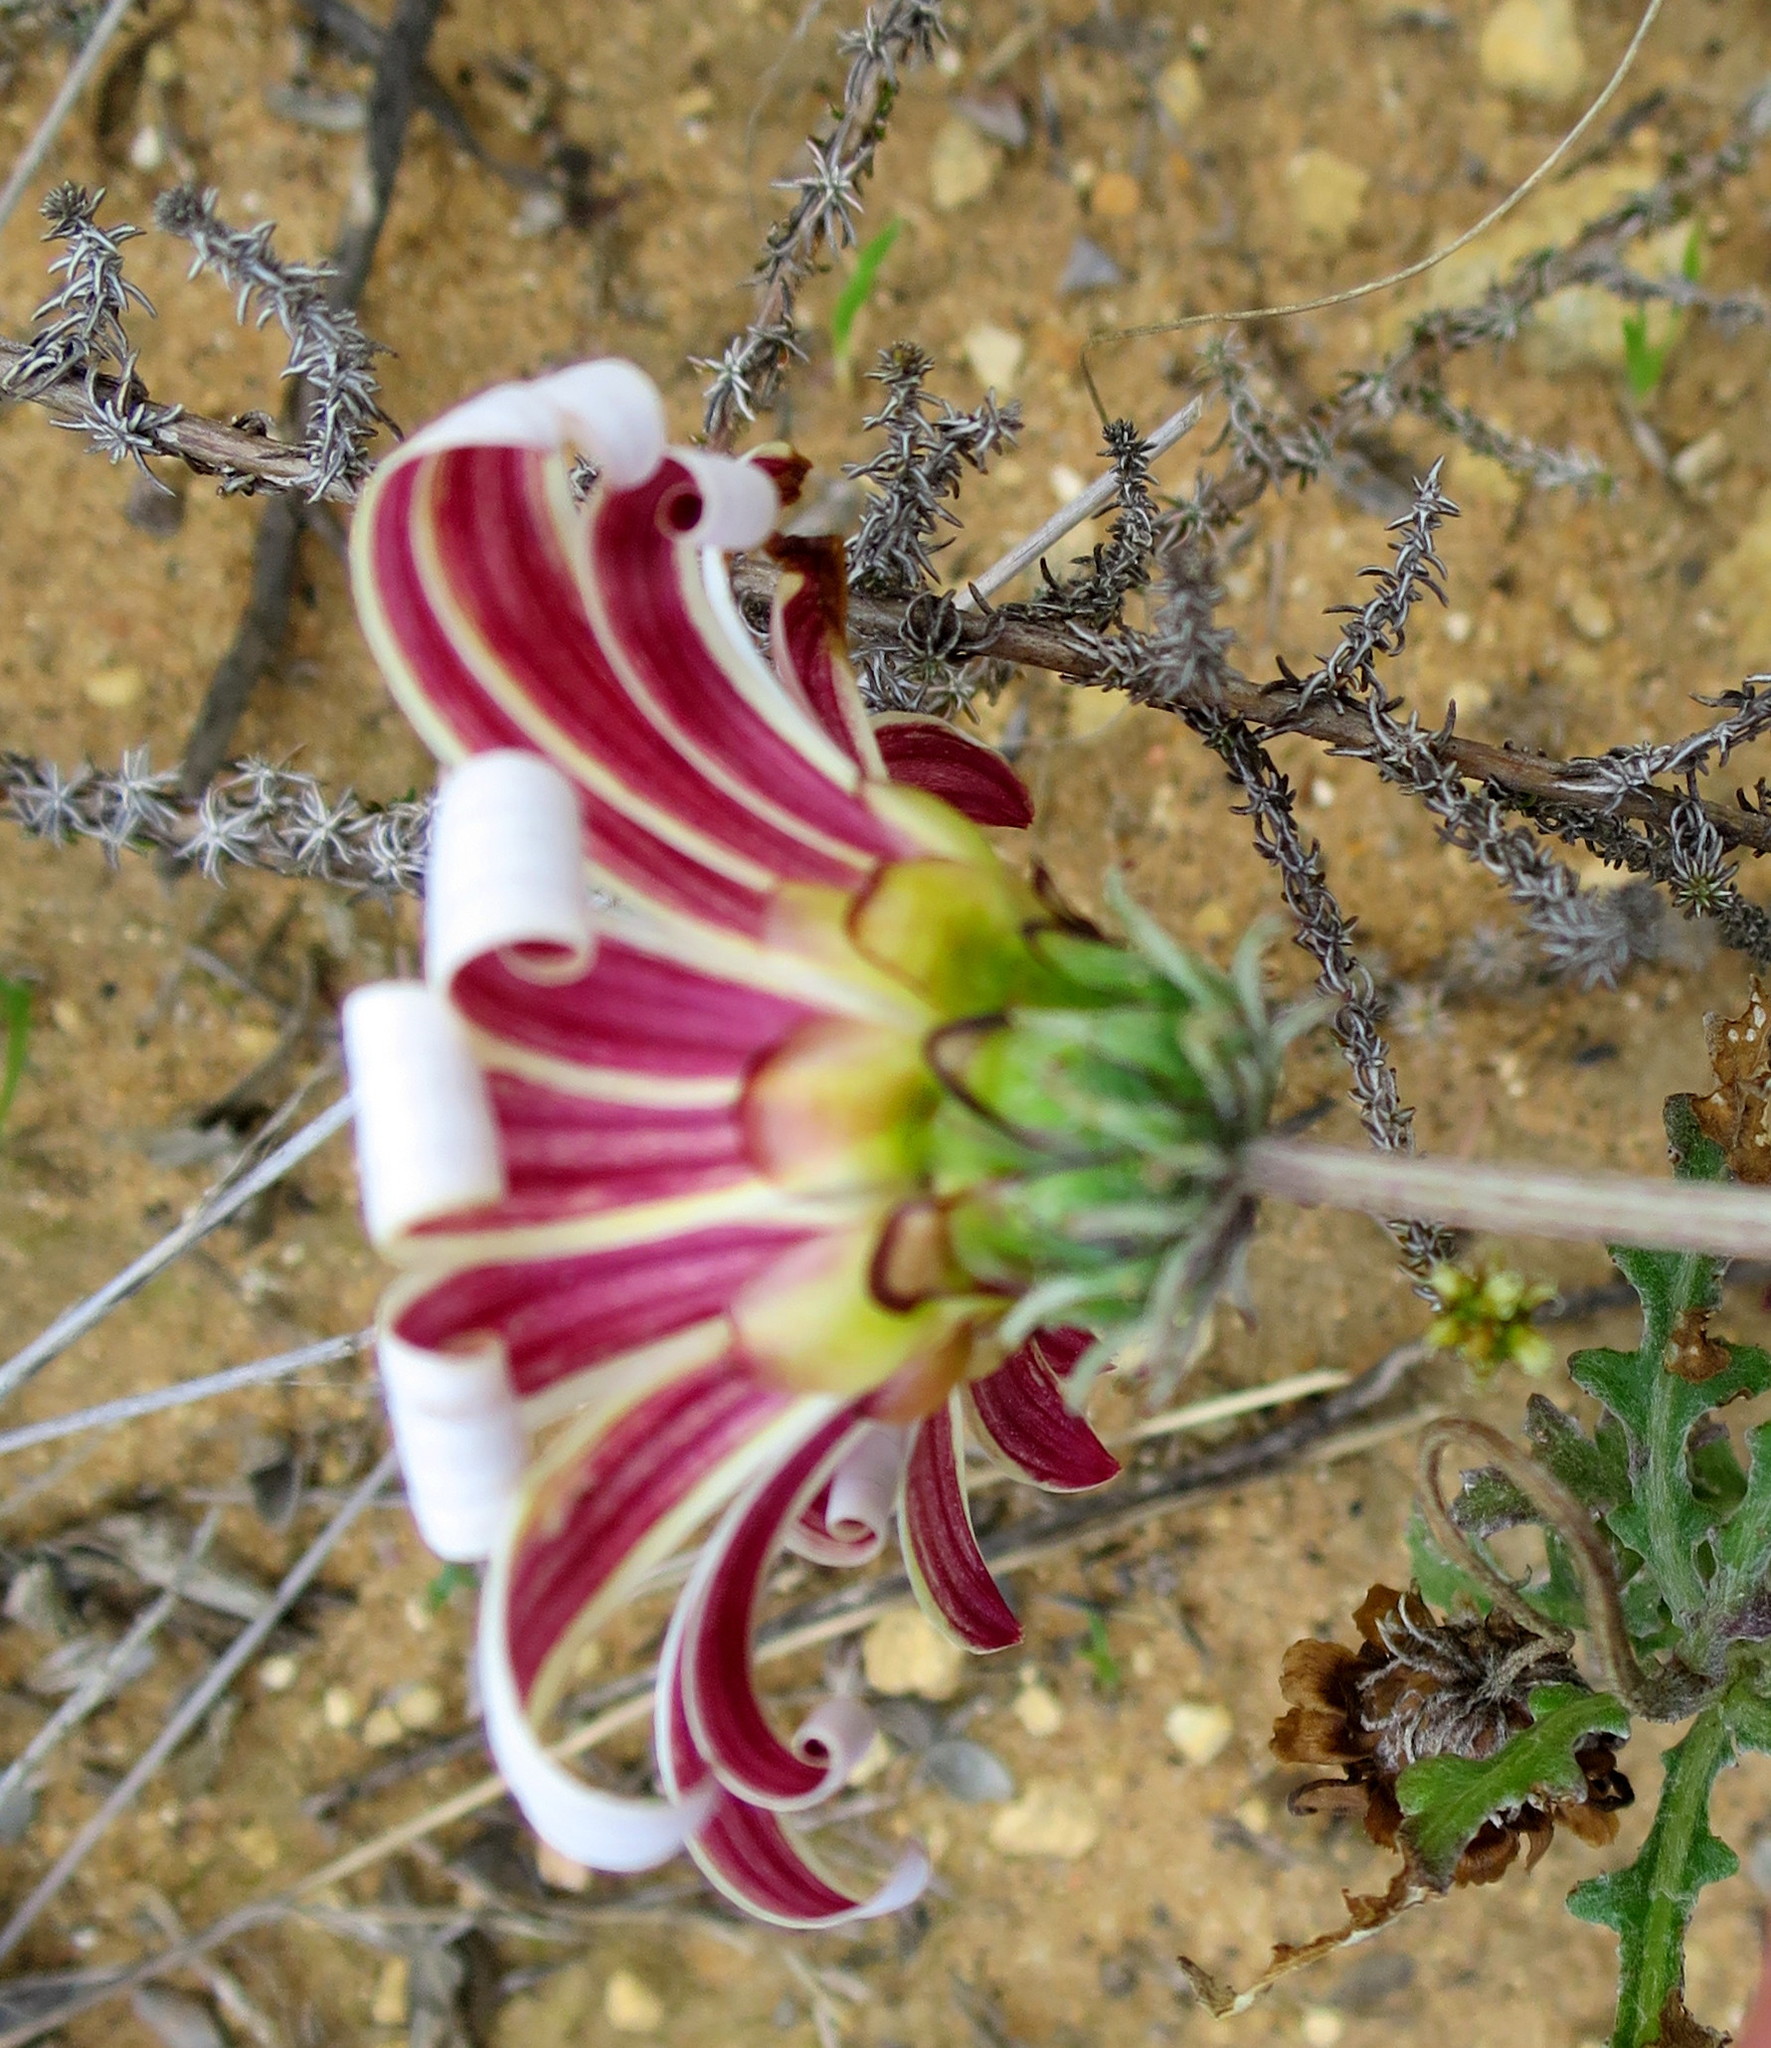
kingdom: Plantae
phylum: Tracheophyta
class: Magnoliopsida
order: Asterales
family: Asteraceae
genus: Arctotis
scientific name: Arctotis pinnatifida
